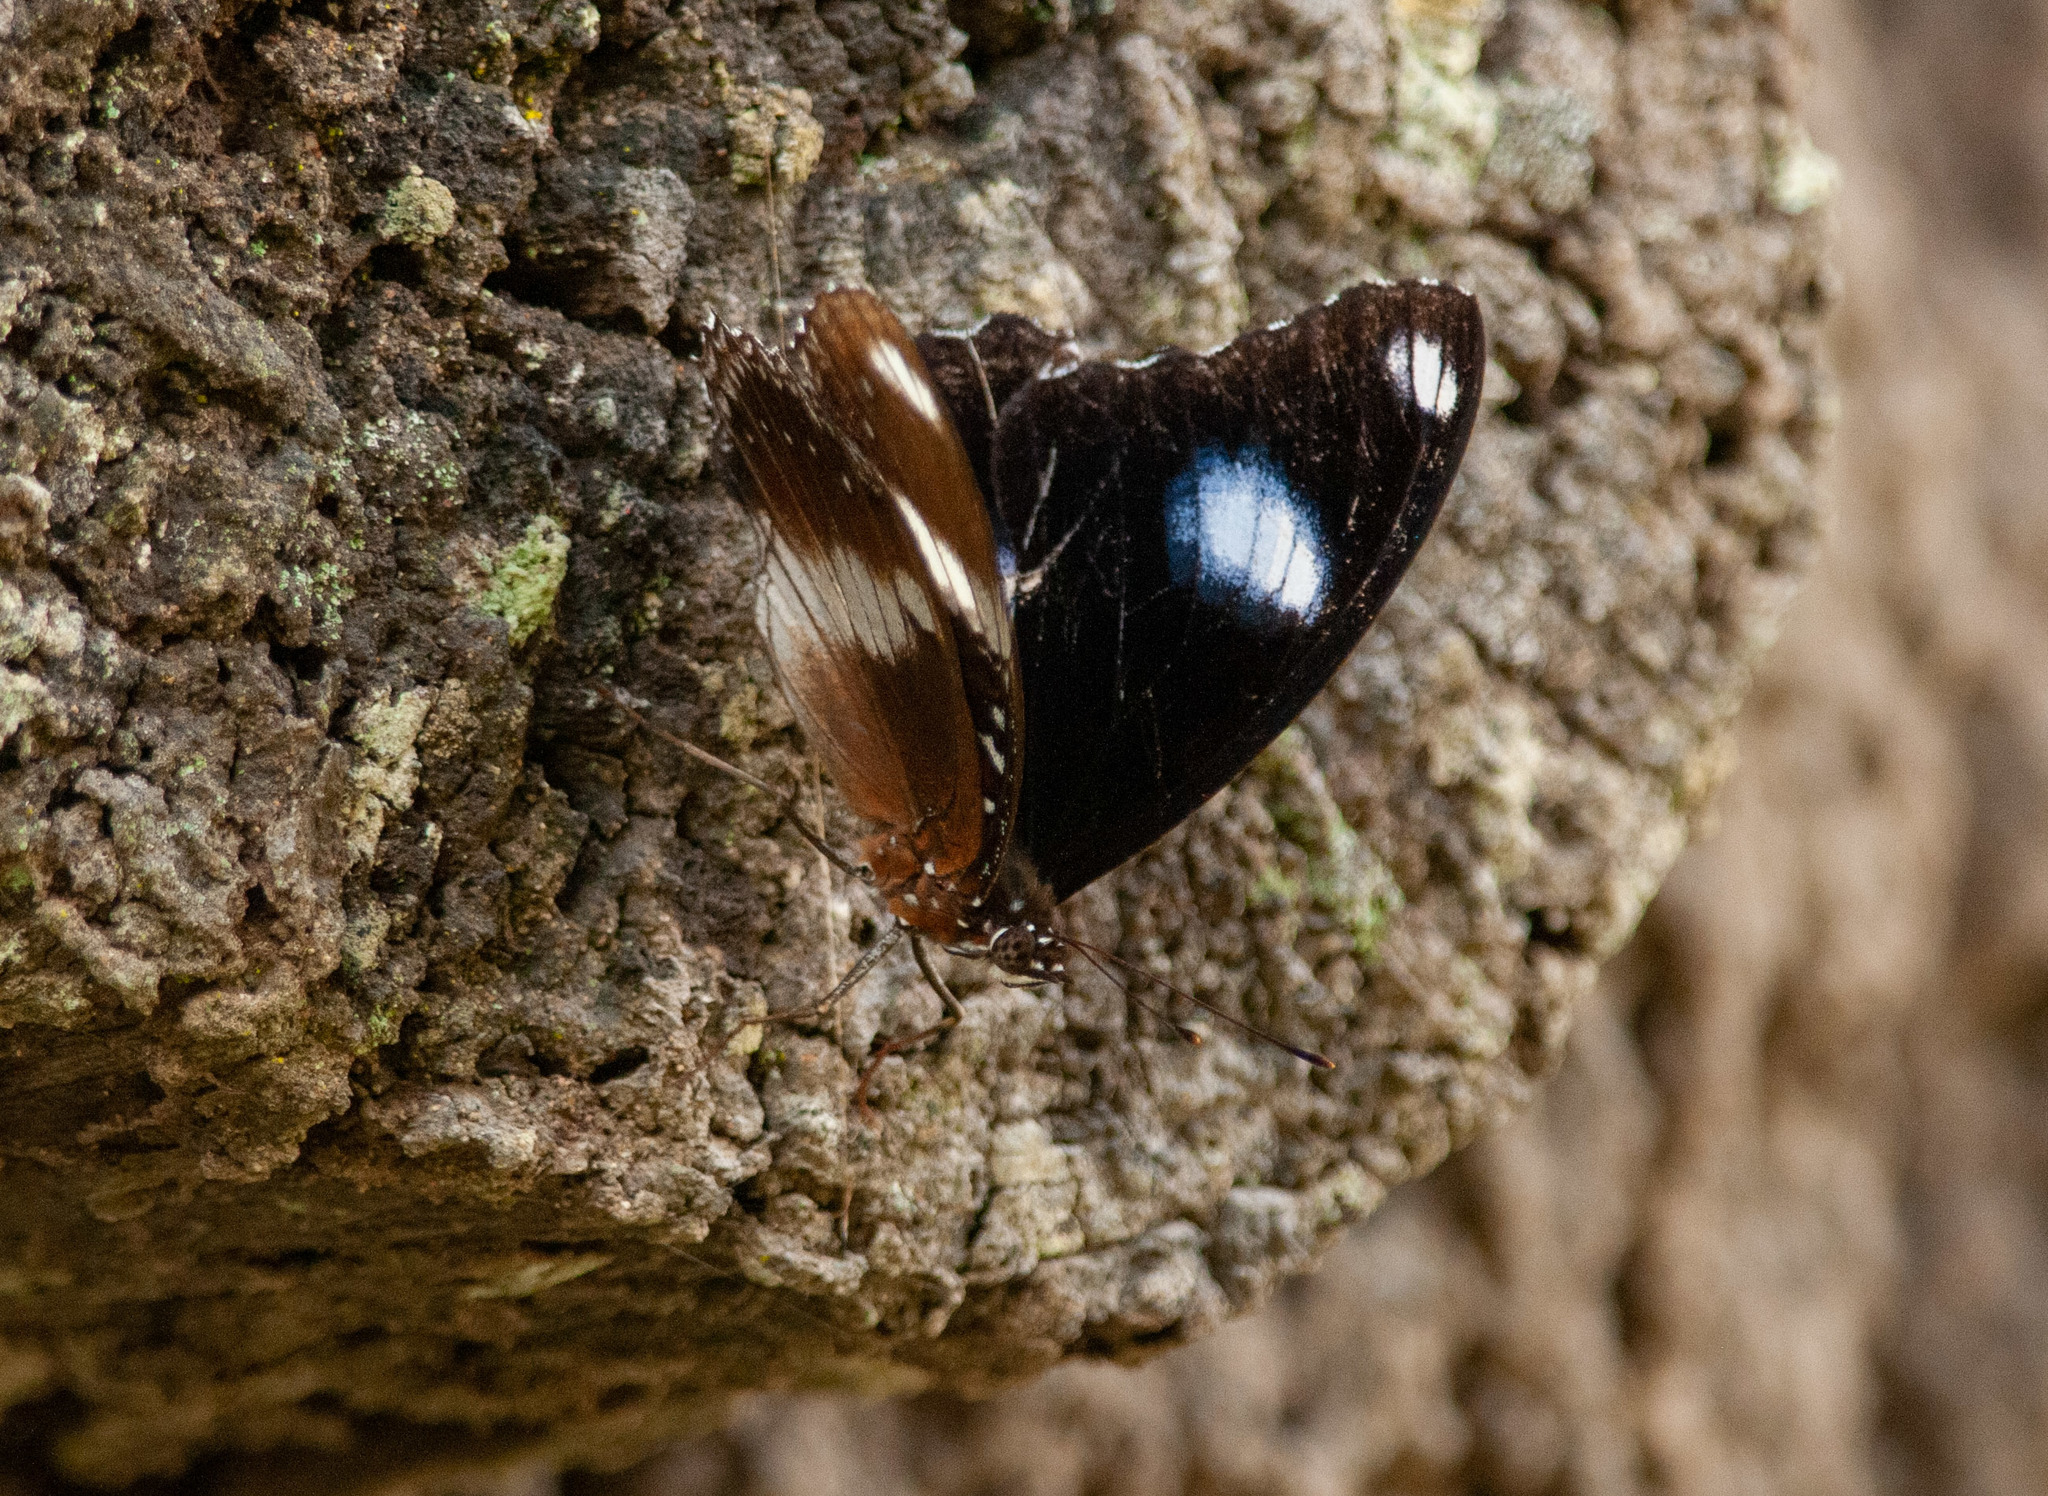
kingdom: Animalia
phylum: Arthropoda
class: Insecta
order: Lepidoptera
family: Nymphalidae
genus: Hypolimnas
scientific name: Hypolimnas bolina
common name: Great eggfly
